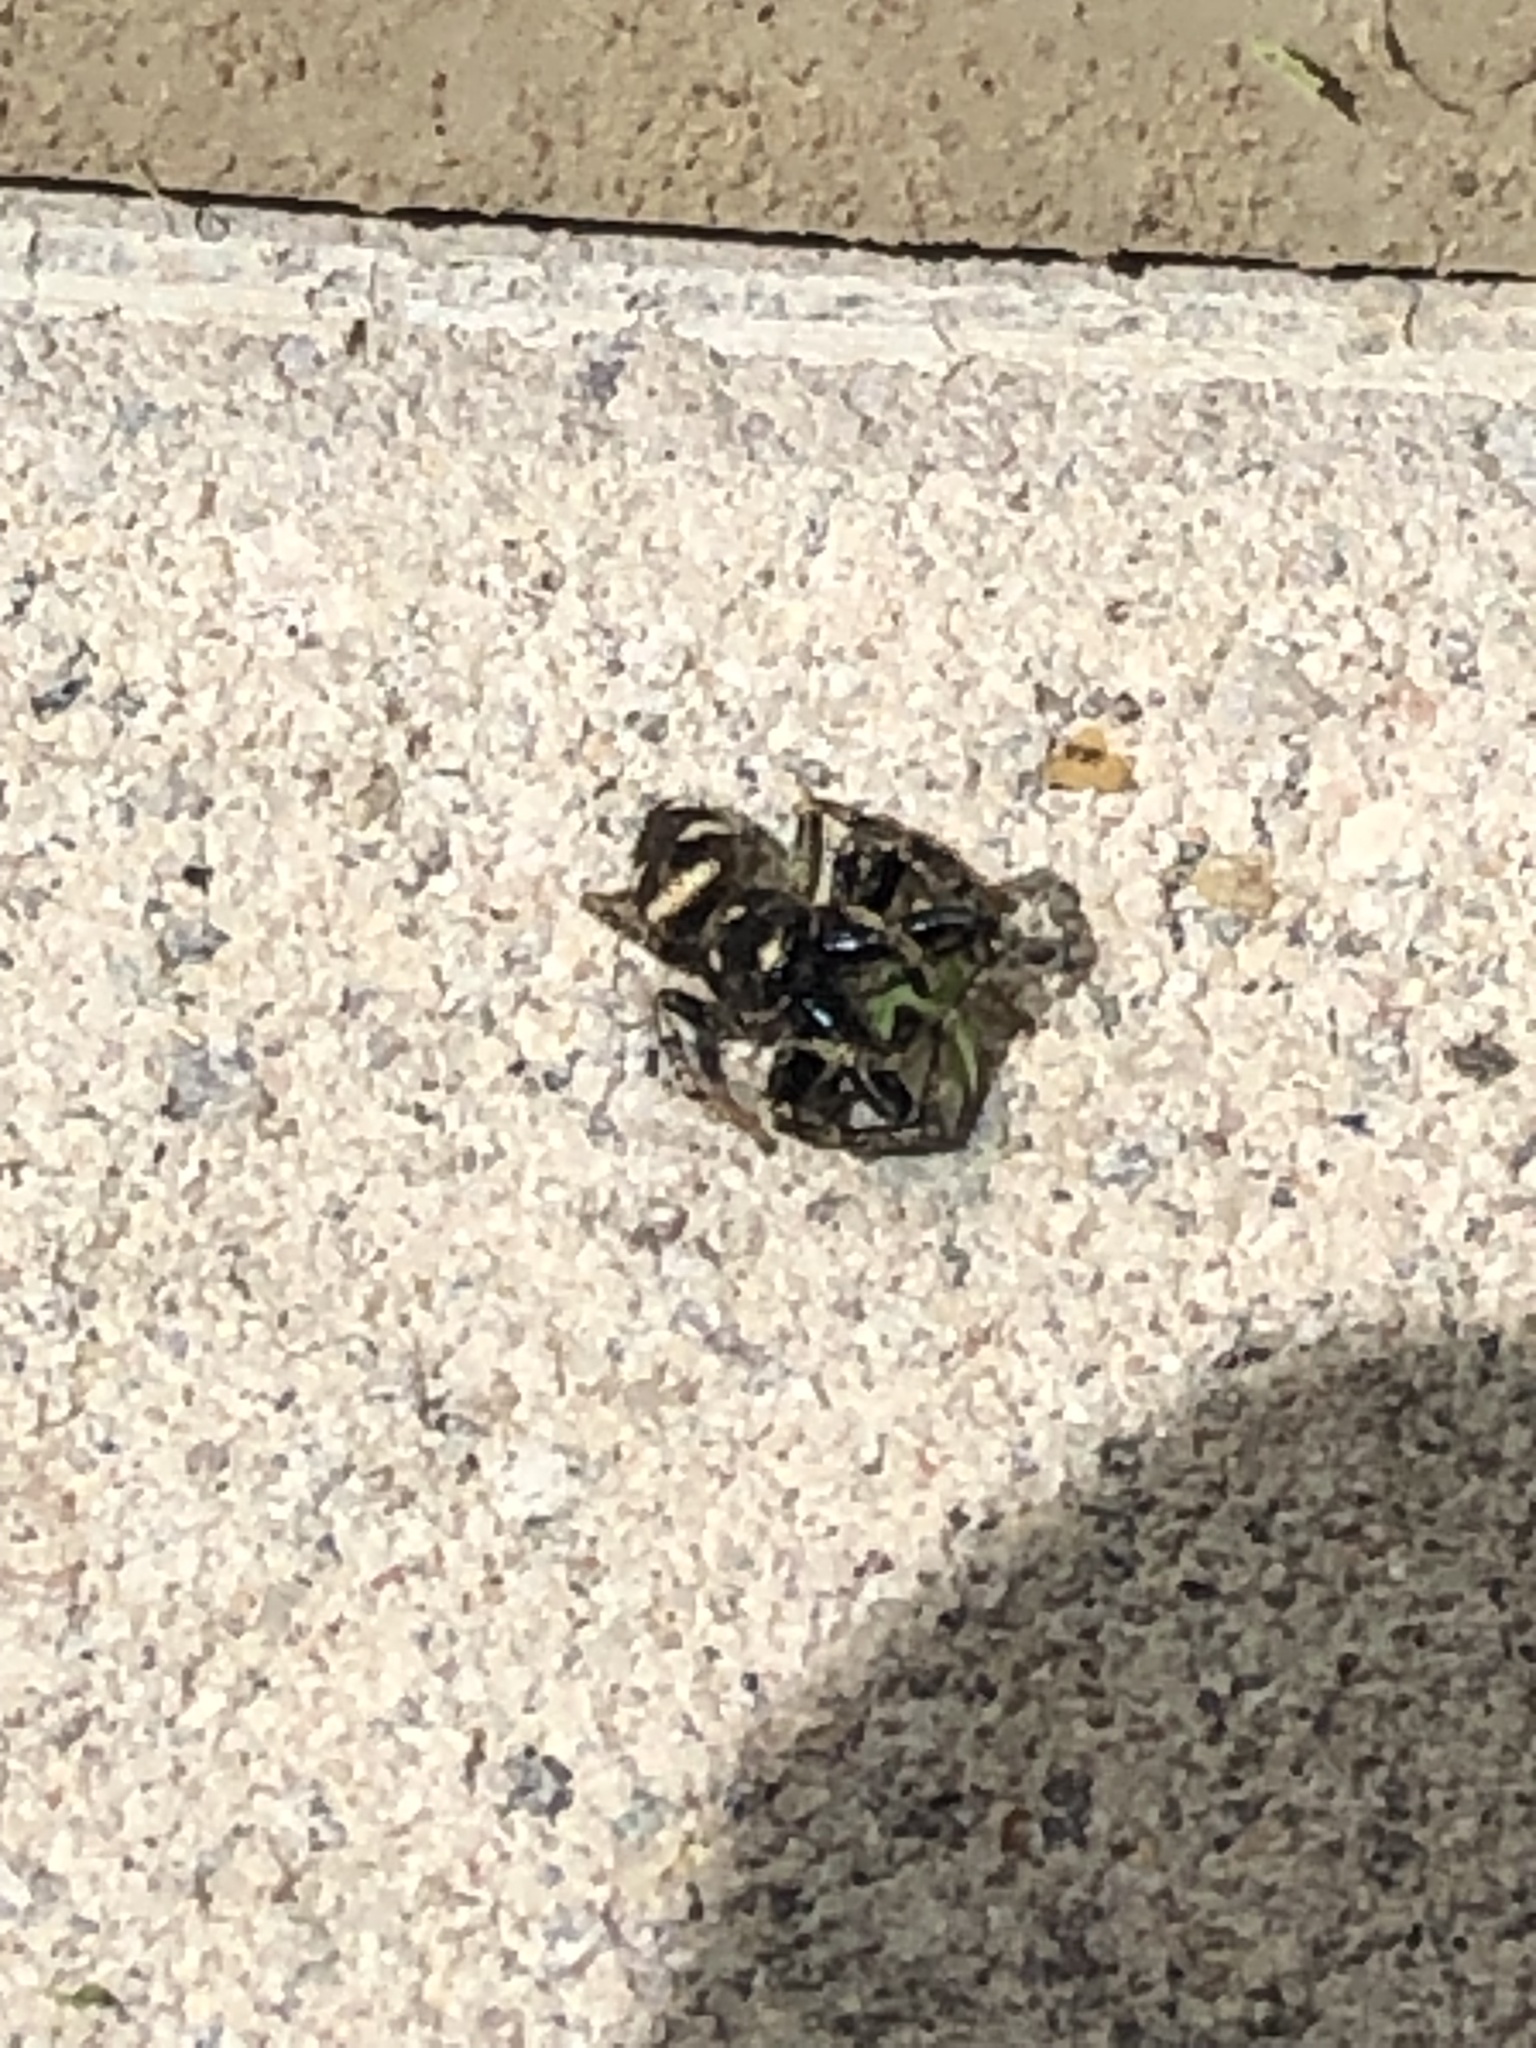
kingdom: Animalia
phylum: Arthropoda
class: Arachnida
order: Araneae
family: Salticidae
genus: Salticus
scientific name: Salticus scenicus
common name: Zebra jumper
